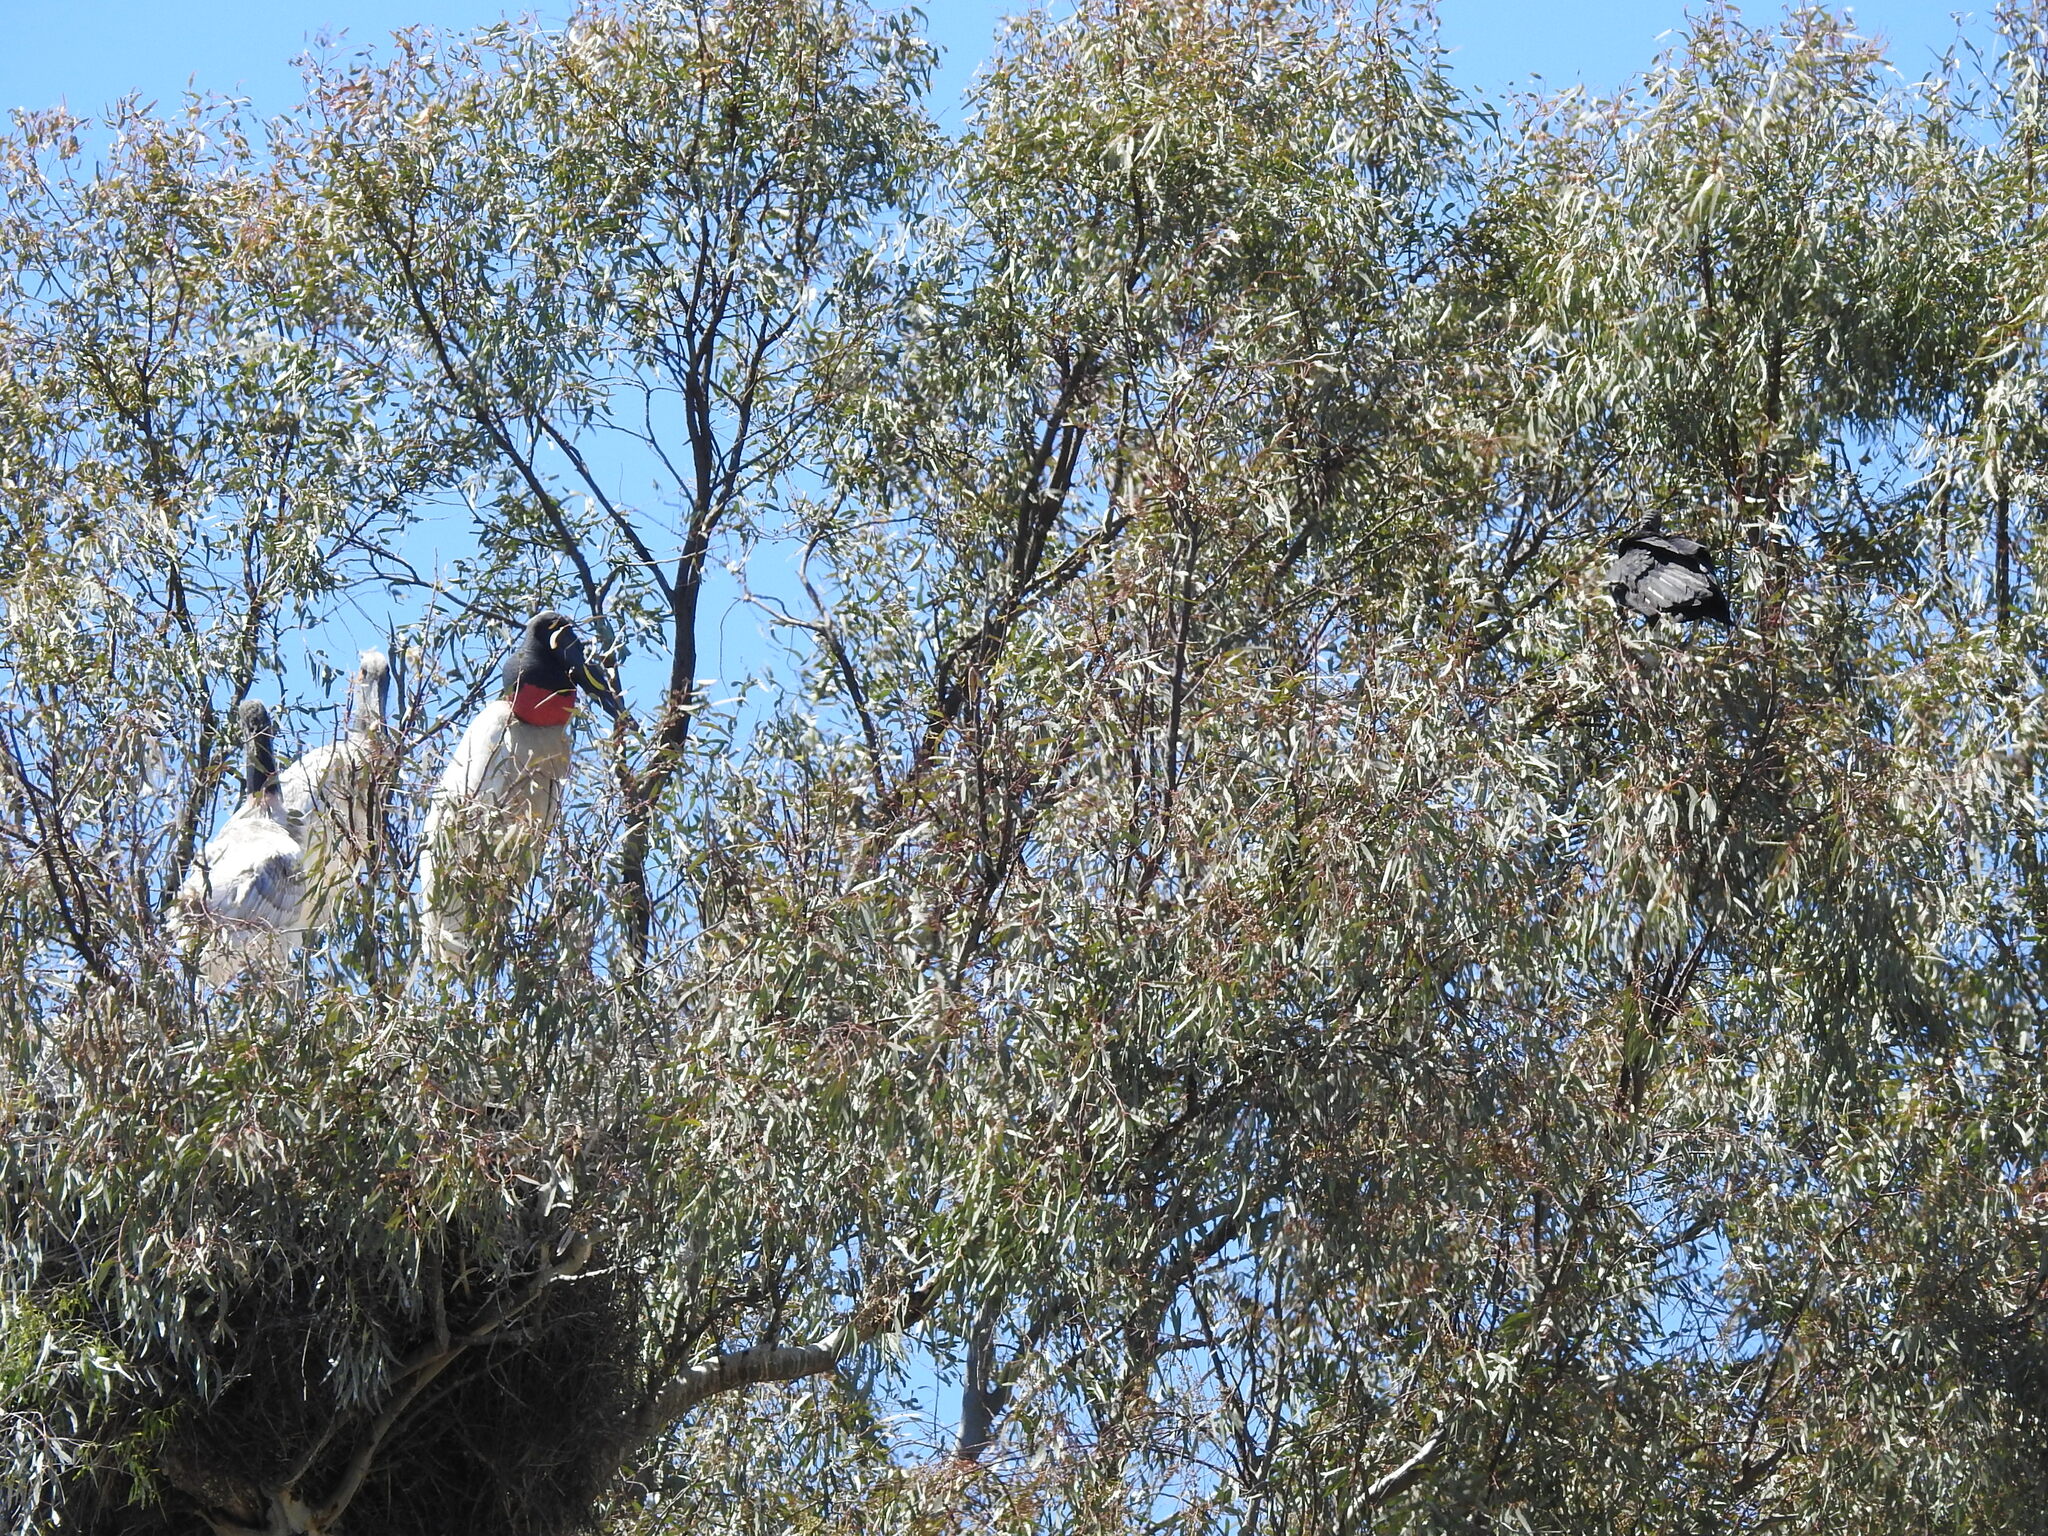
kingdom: Animalia
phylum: Chordata
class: Aves
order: Ciconiiformes
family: Ciconiidae
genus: Jabiru
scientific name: Jabiru mycteria
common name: Jabiru
